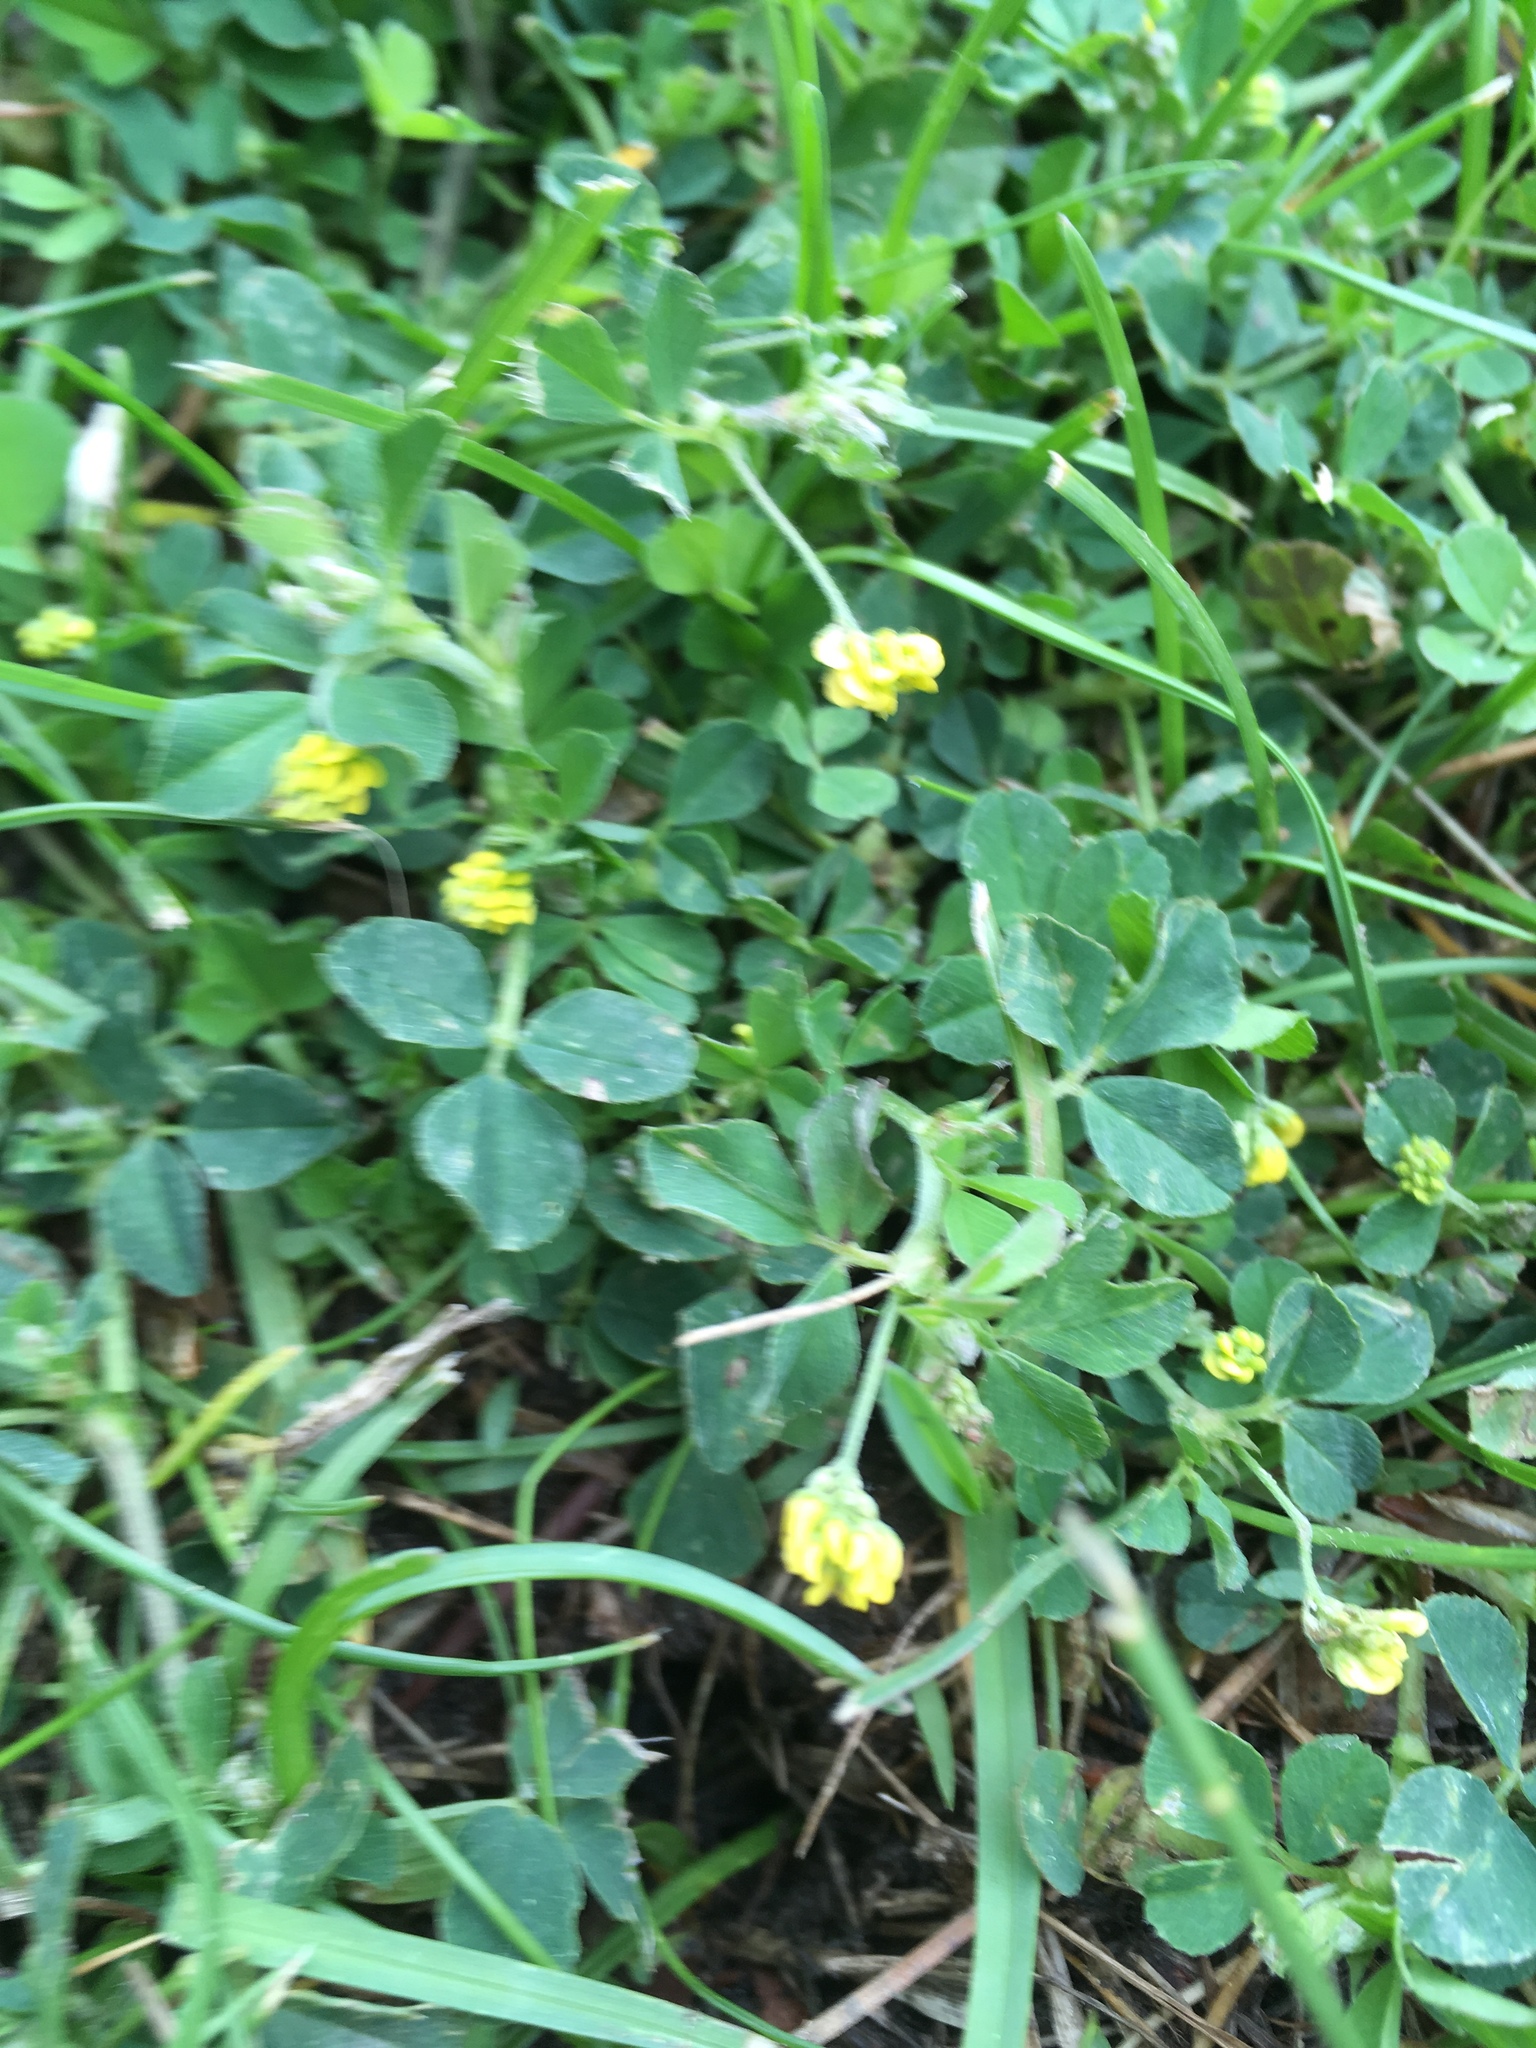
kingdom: Plantae
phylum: Tracheophyta
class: Magnoliopsida
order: Fabales
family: Fabaceae
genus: Medicago
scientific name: Medicago lupulina
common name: Black medick
